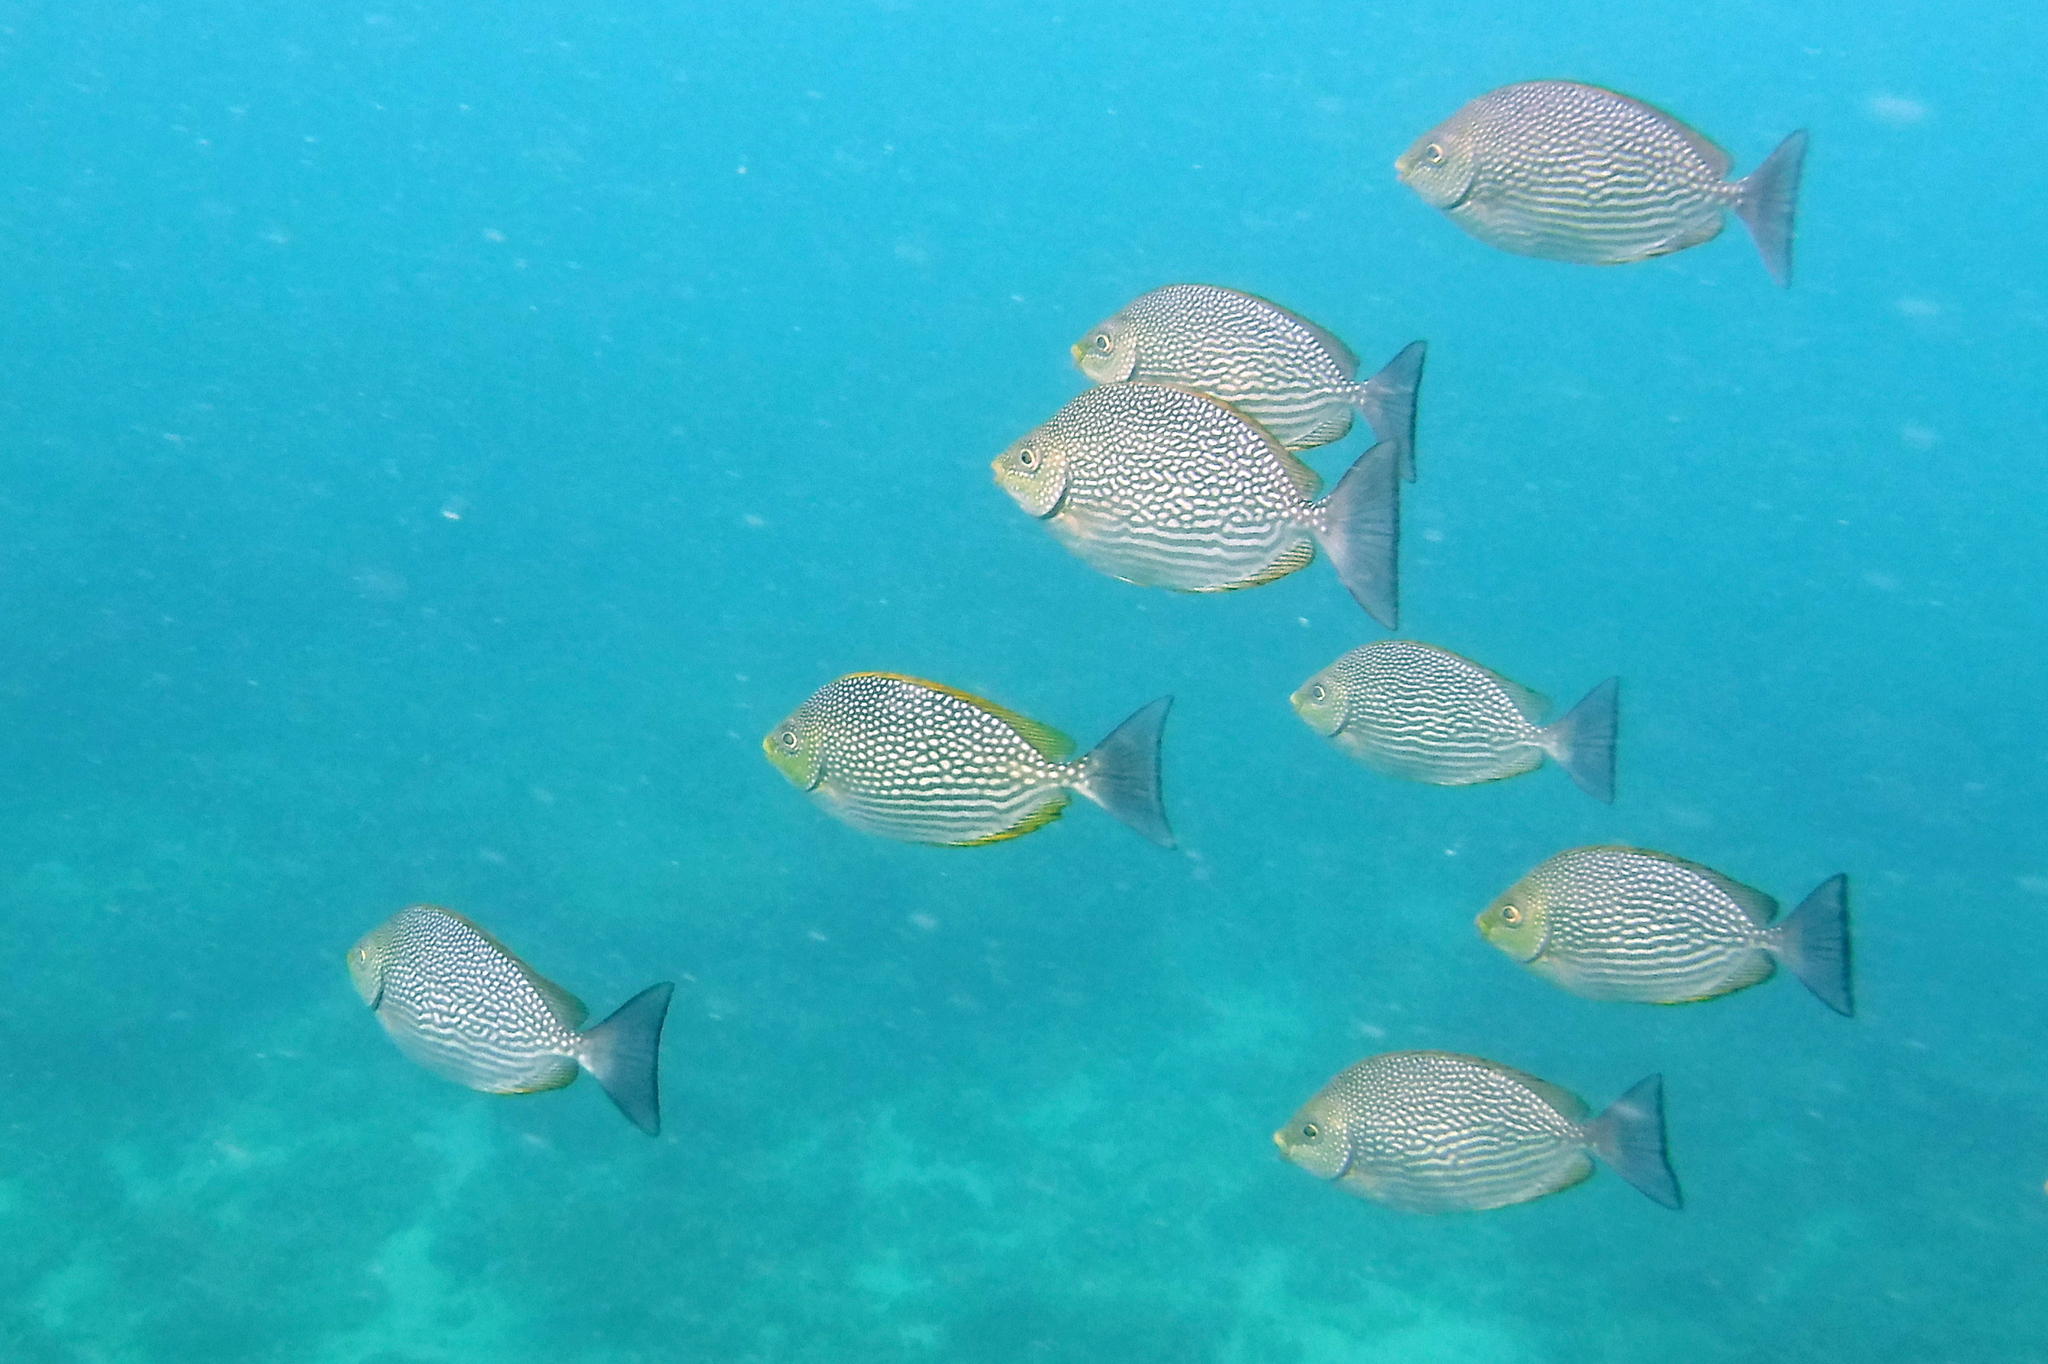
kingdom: Animalia
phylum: Chordata
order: Perciformes
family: Siganidae
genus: Siganus
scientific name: Siganus javus
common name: Java rabbitfish
